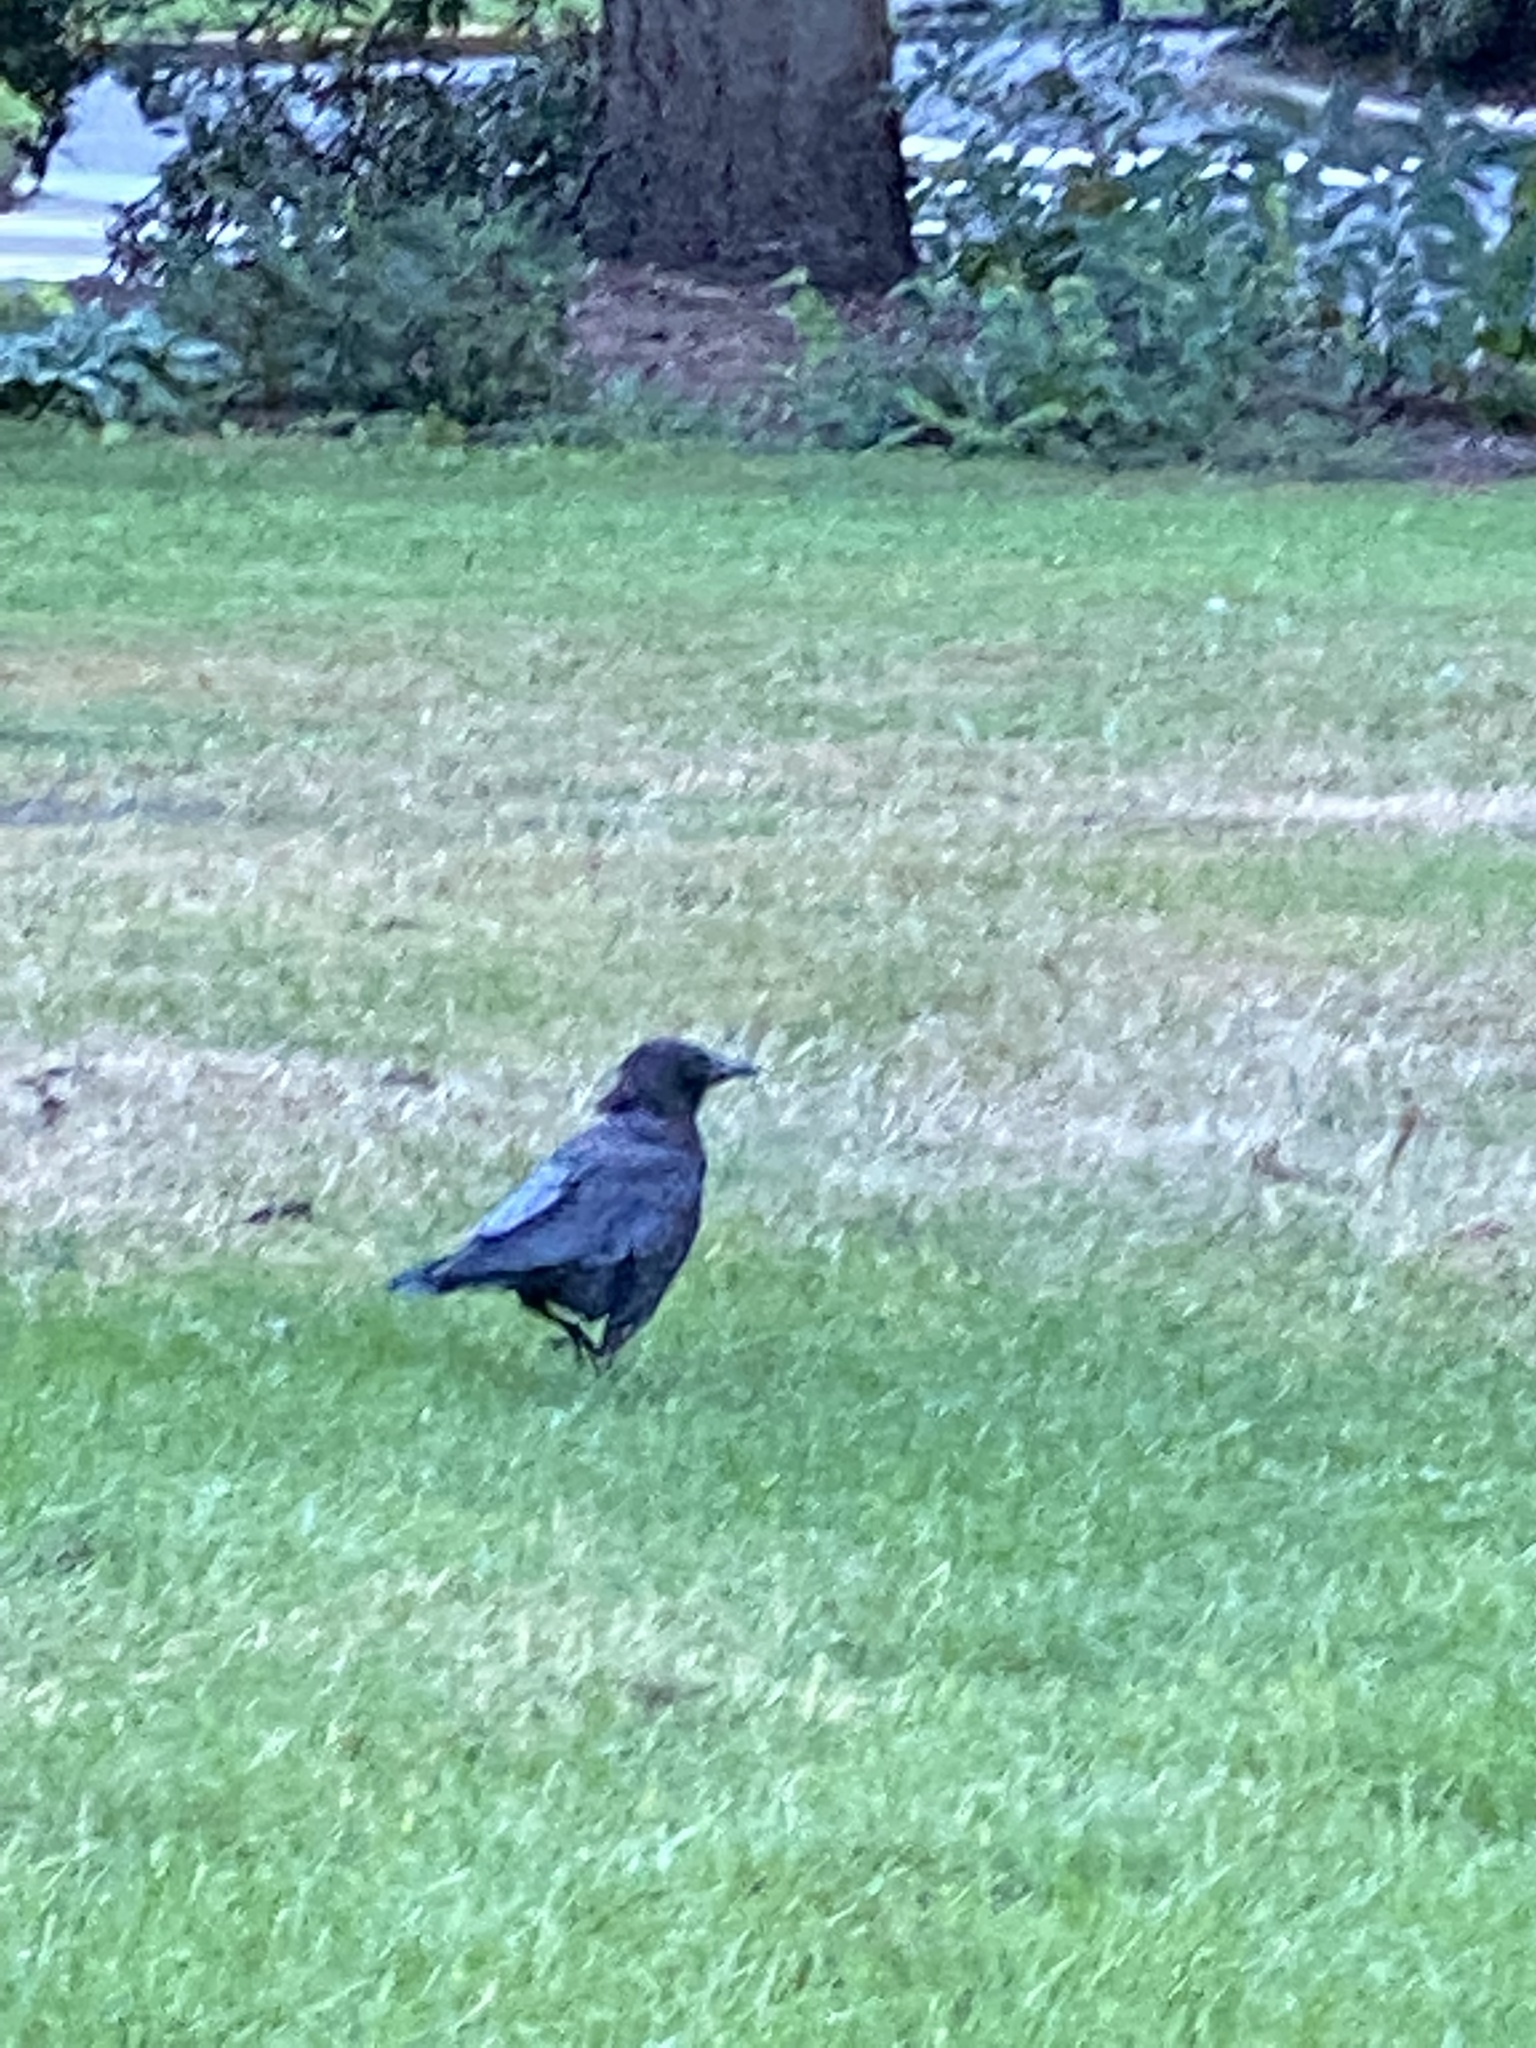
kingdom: Animalia
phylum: Chordata
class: Aves
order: Passeriformes
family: Corvidae
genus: Corvus
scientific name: Corvus brachyrhynchos
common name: American crow
